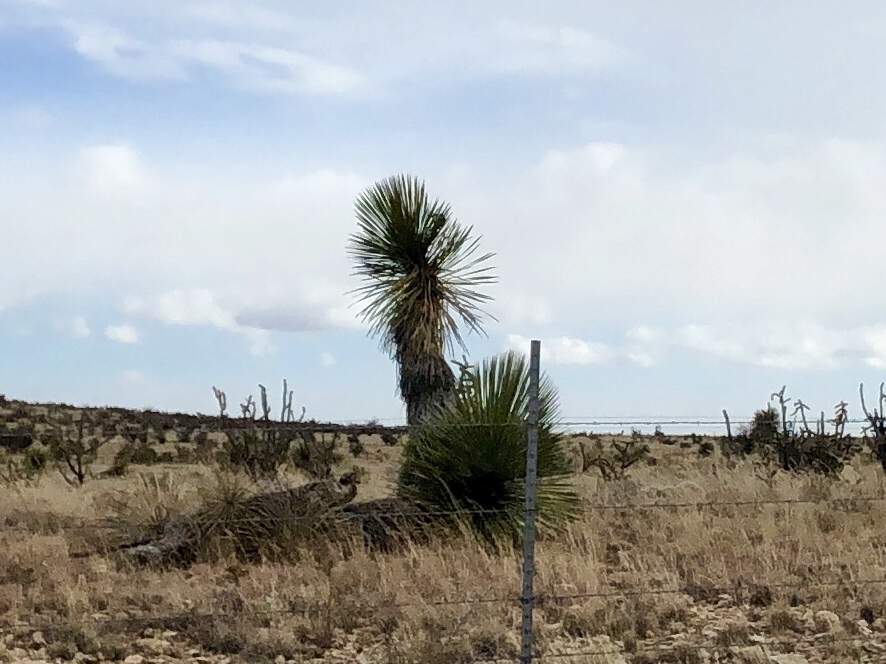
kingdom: Plantae
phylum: Tracheophyta
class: Liliopsida
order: Asparagales
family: Asparagaceae
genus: Yucca
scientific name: Yucca elata
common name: Palmella
